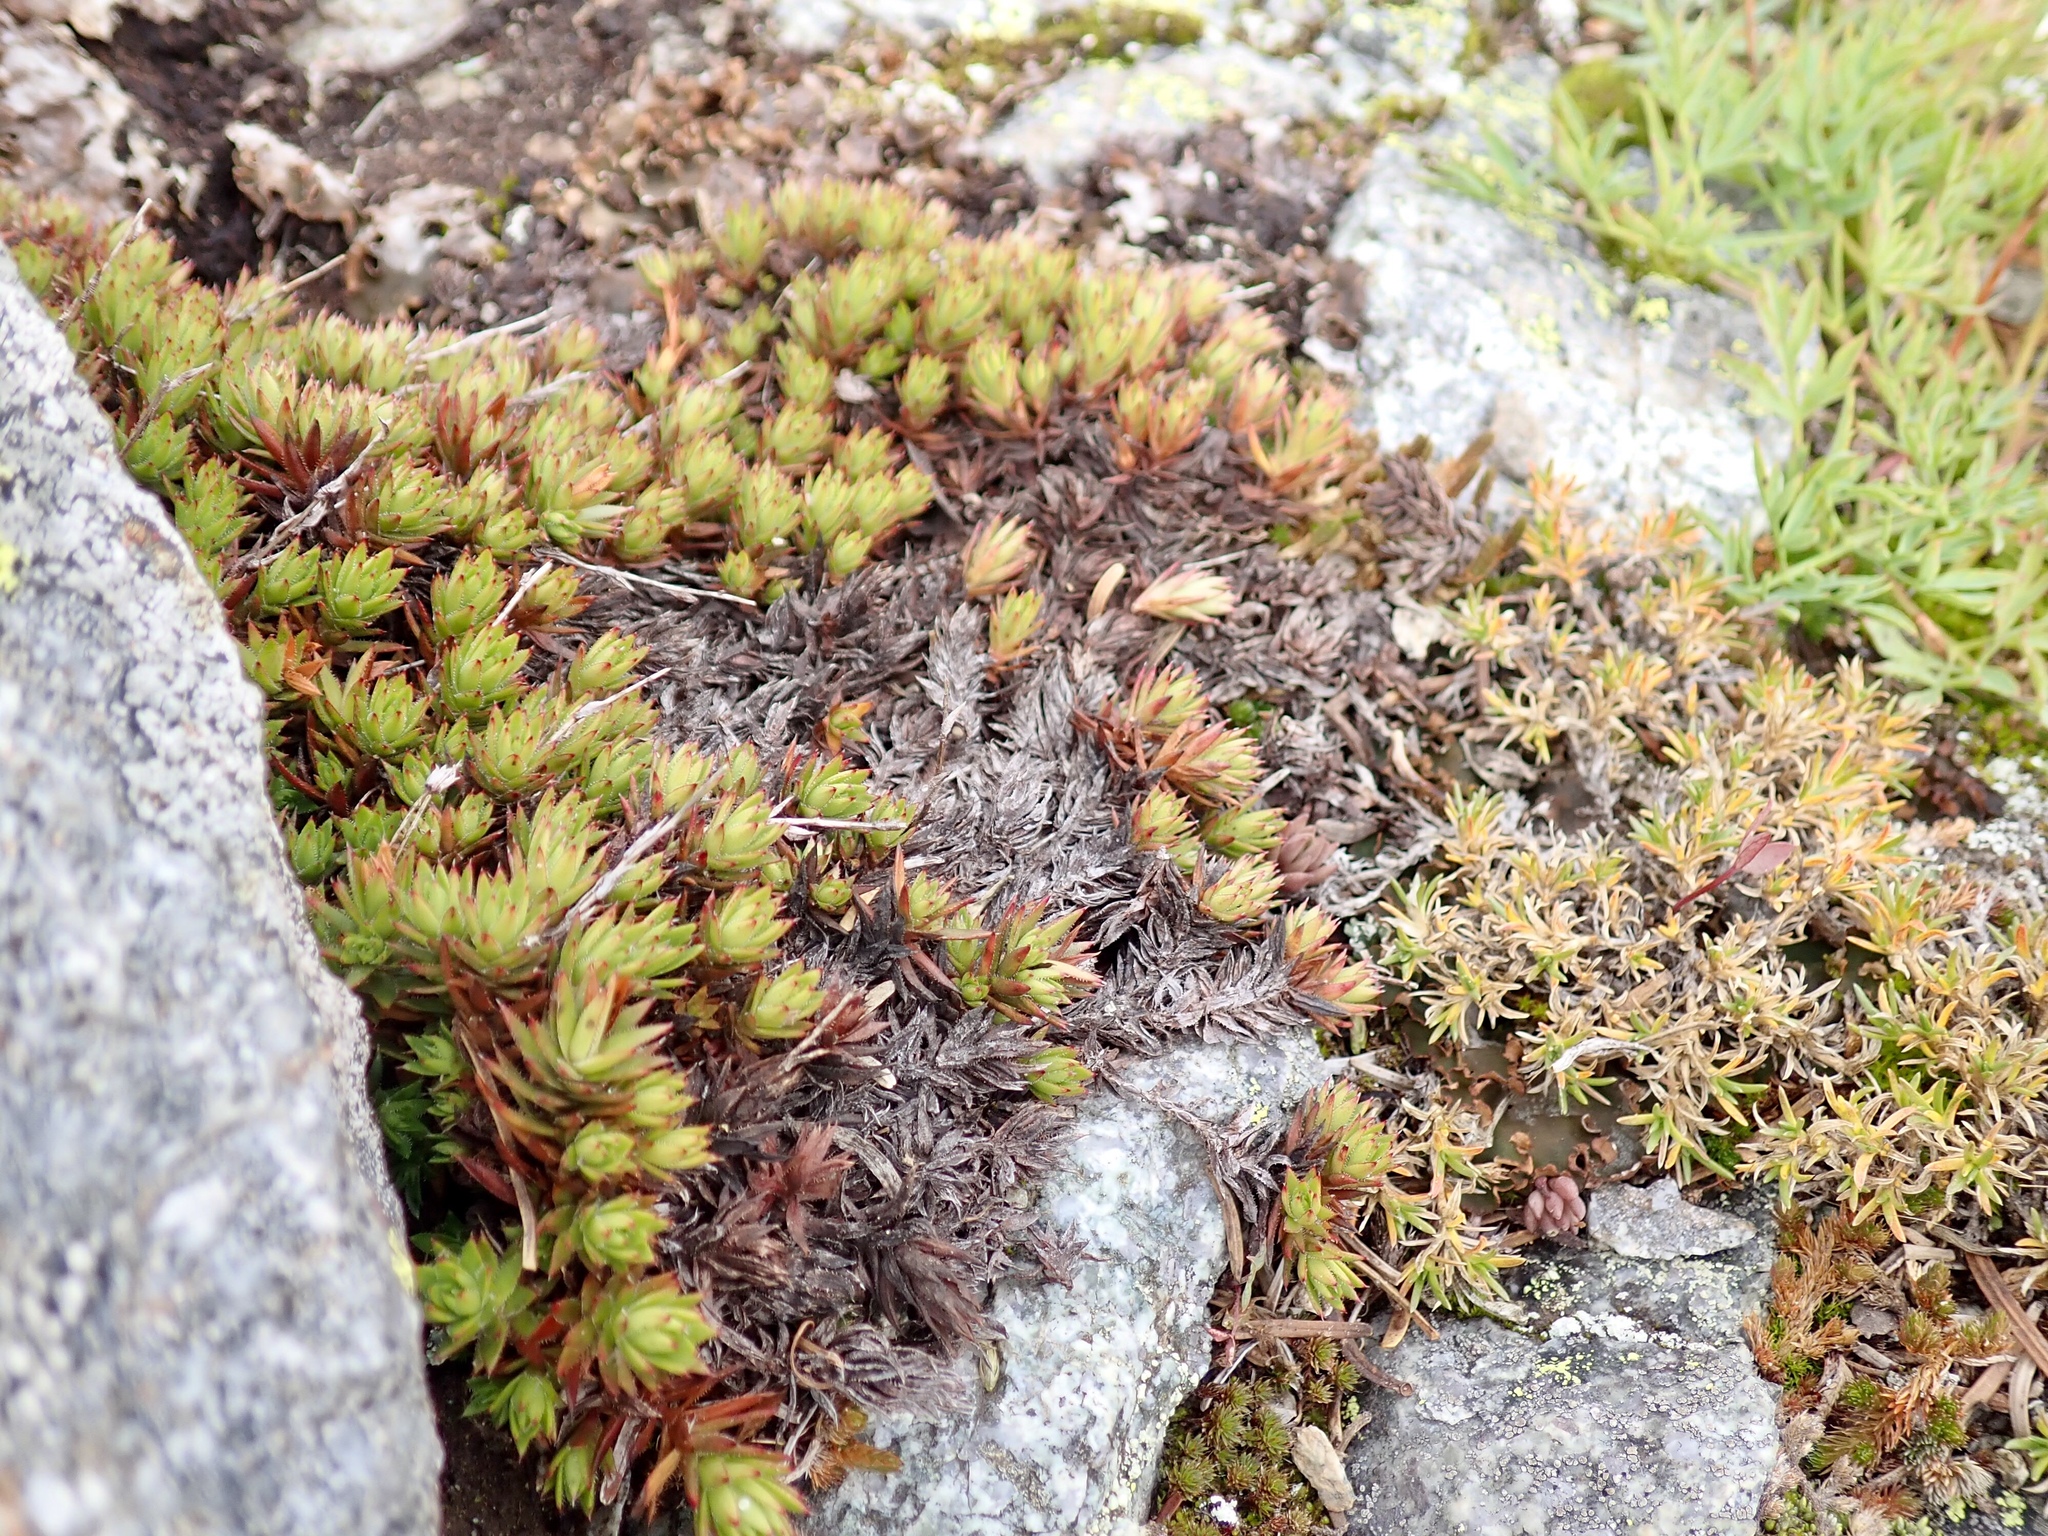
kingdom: Plantae
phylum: Tracheophyta
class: Magnoliopsida
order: Saxifragales
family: Saxifragaceae
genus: Saxifraga
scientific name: Saxifraga bronchialis
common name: Matted saxifrage
